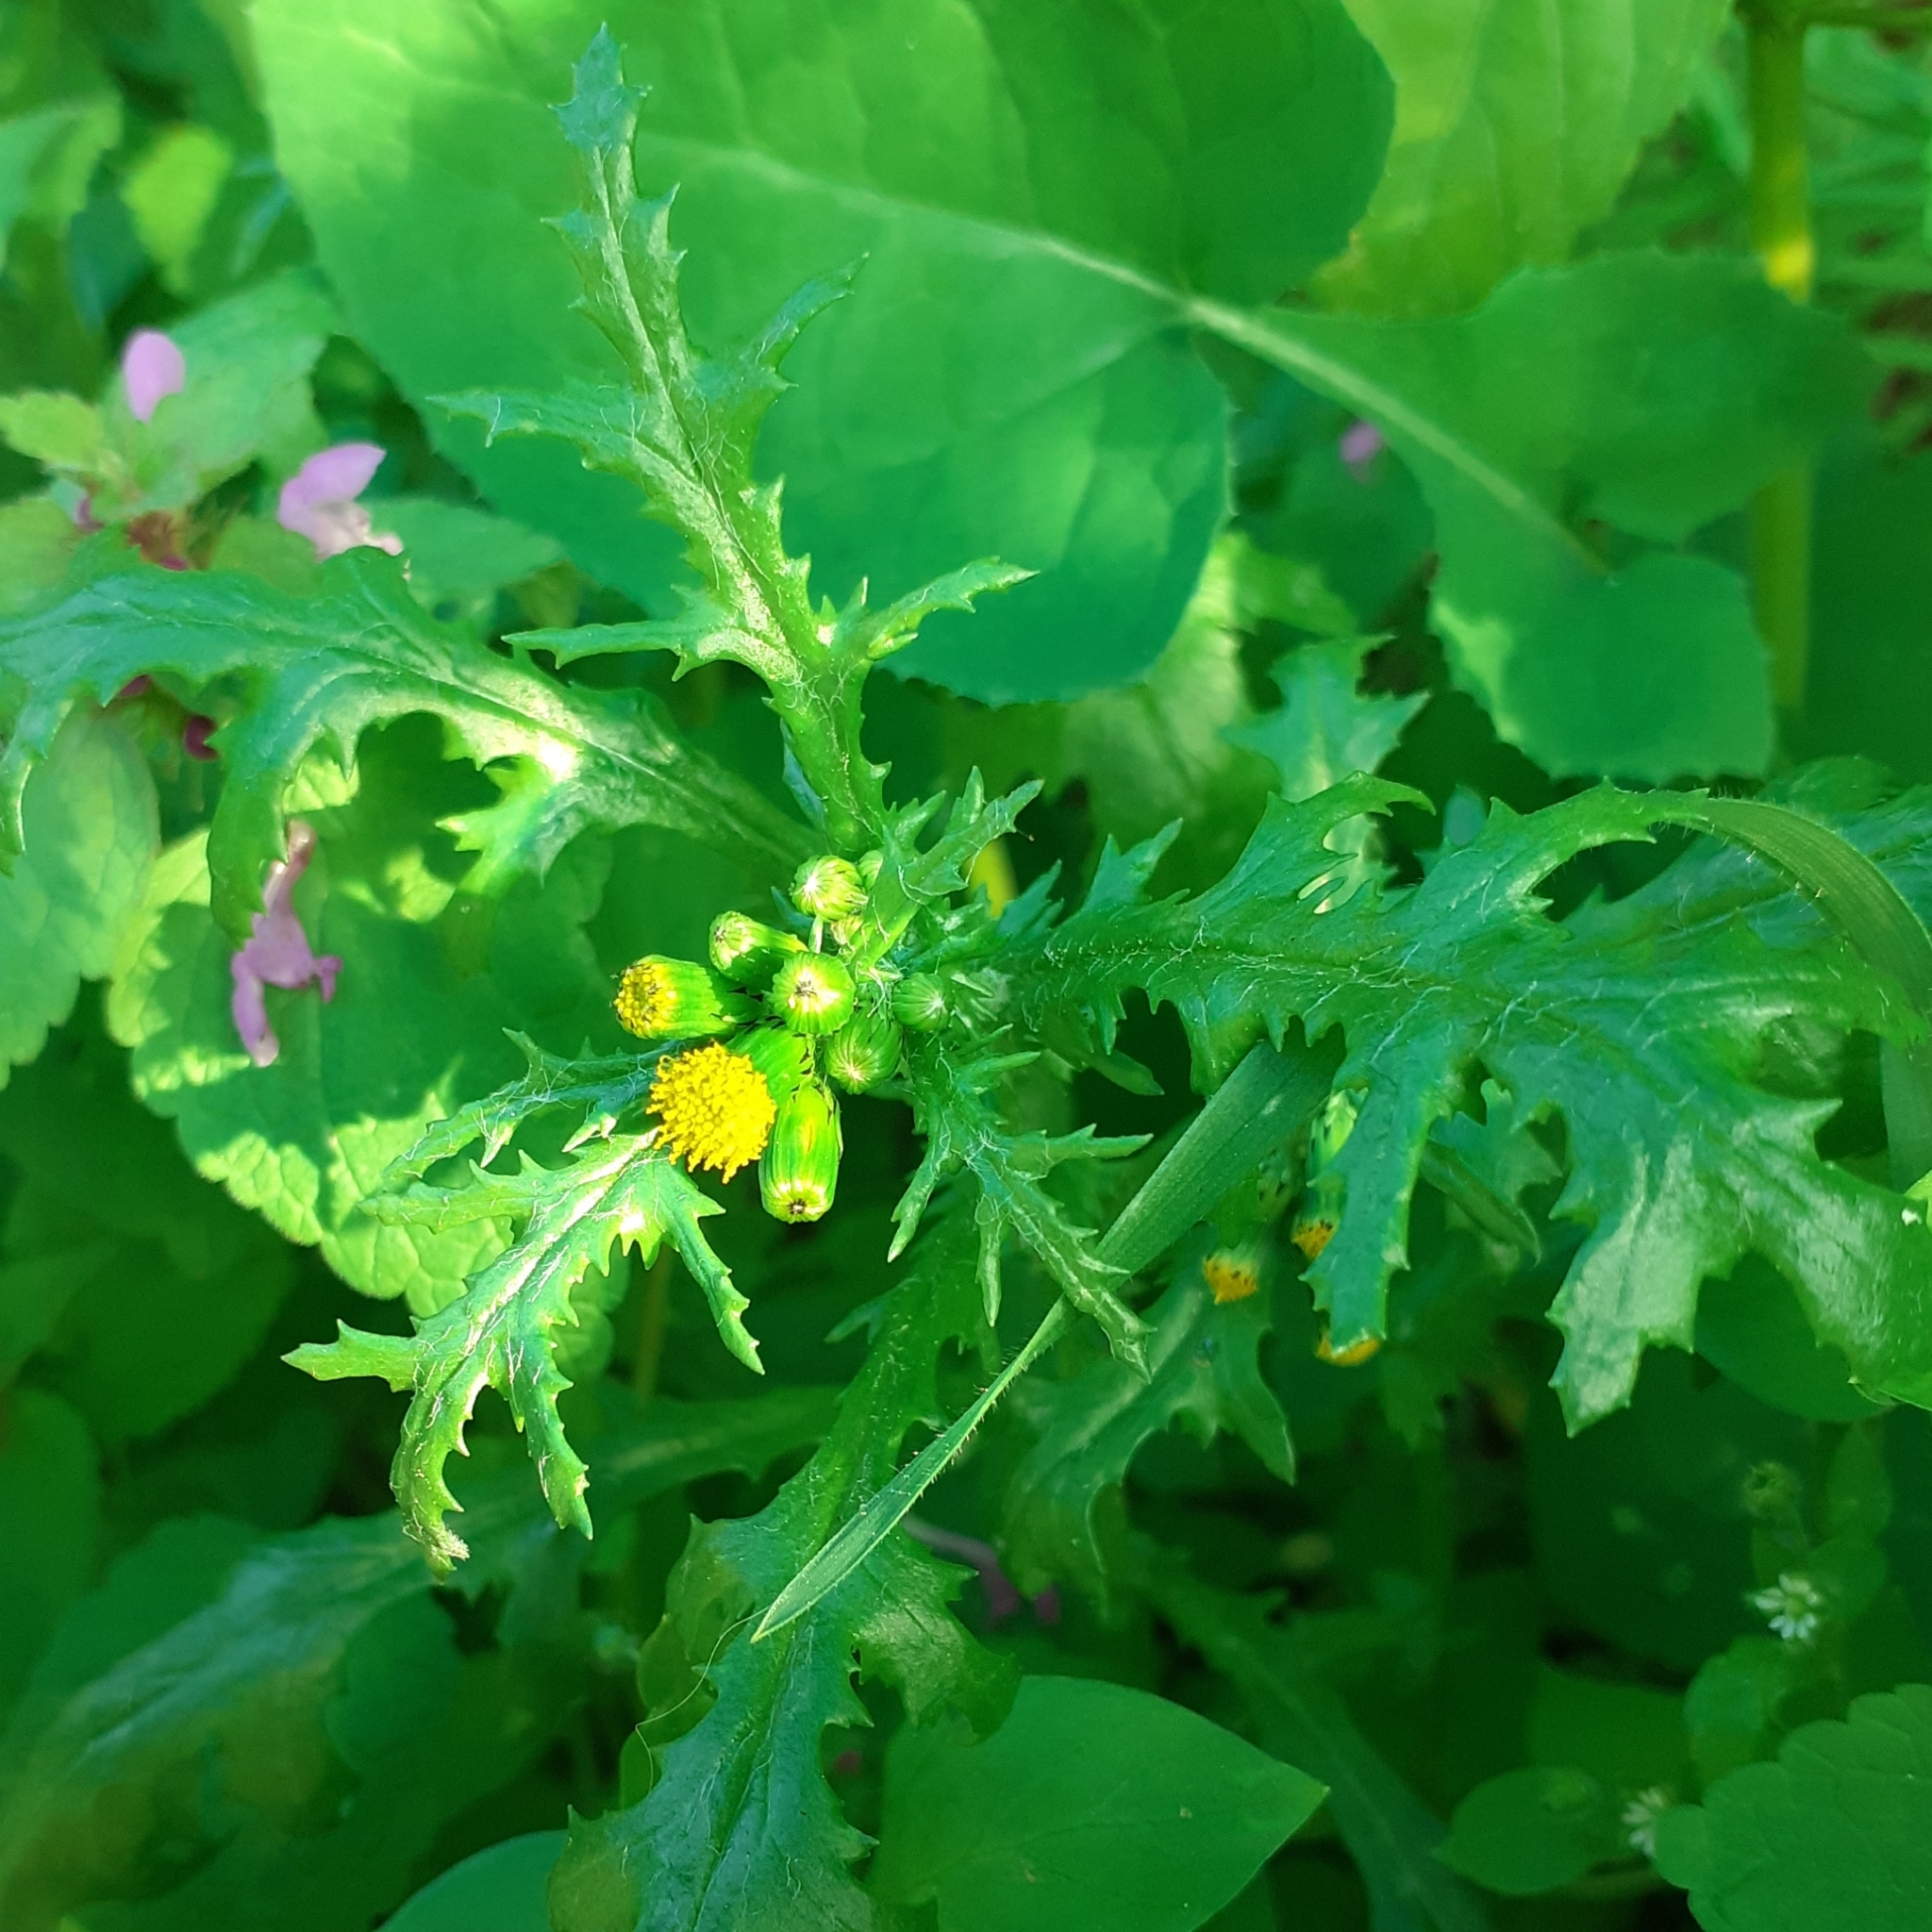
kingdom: Plantae
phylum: Tracheophyta
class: Magnoliopsida
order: Asterales
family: Asteraceae
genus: Senecio
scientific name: Senecio vulgaris
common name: Old-man-in-the-spring
